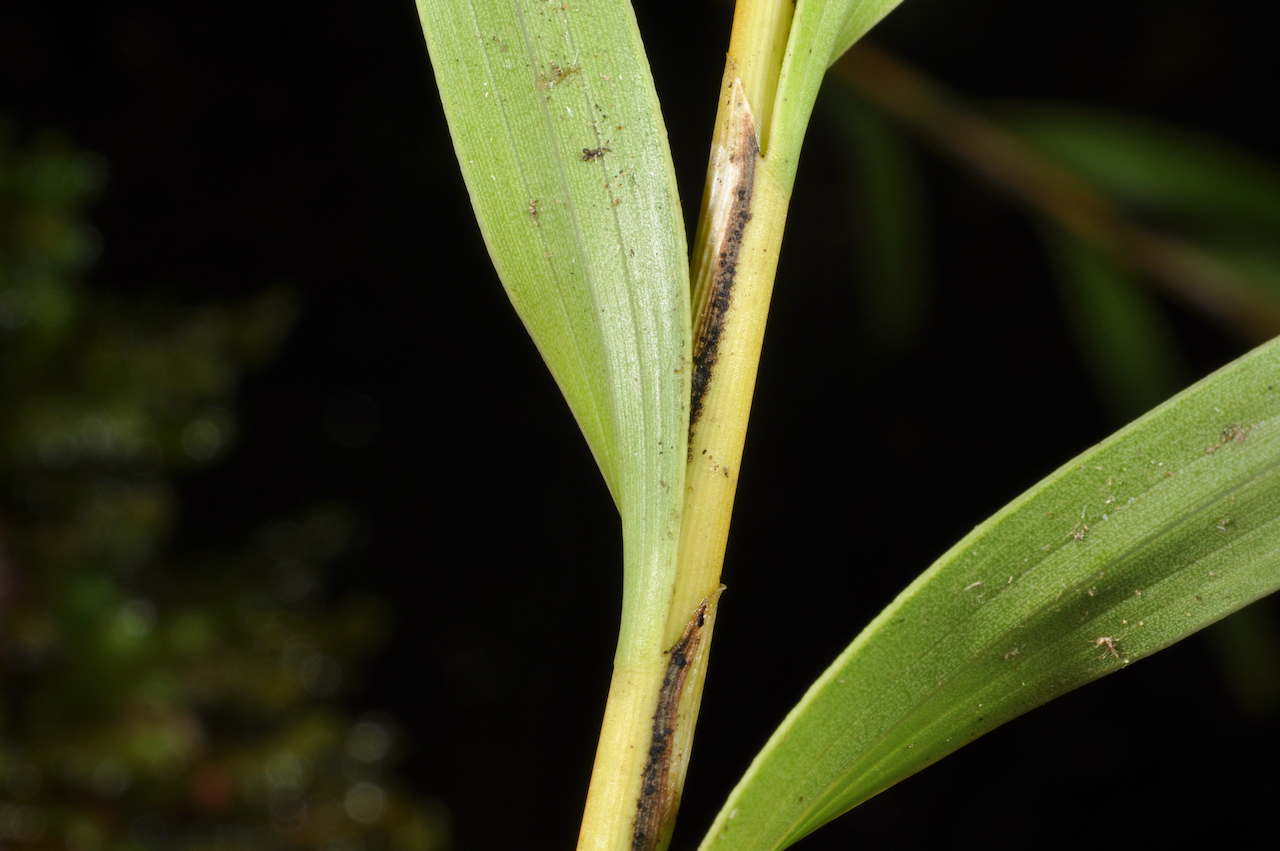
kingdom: Plantae
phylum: Tracheophyta
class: Liliopsida
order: Asparagales
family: Orchidaceae
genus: Earina
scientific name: Earina autumnalis
